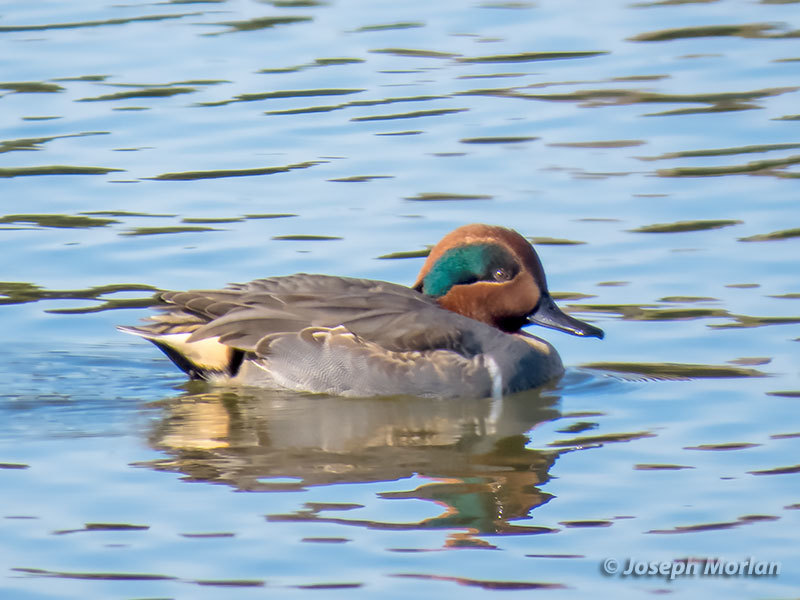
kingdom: Animalia
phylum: Chordata
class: Aves
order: Anseriformes
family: Anatidae
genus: Anas
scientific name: Anas crecca
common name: Eurasian teal
